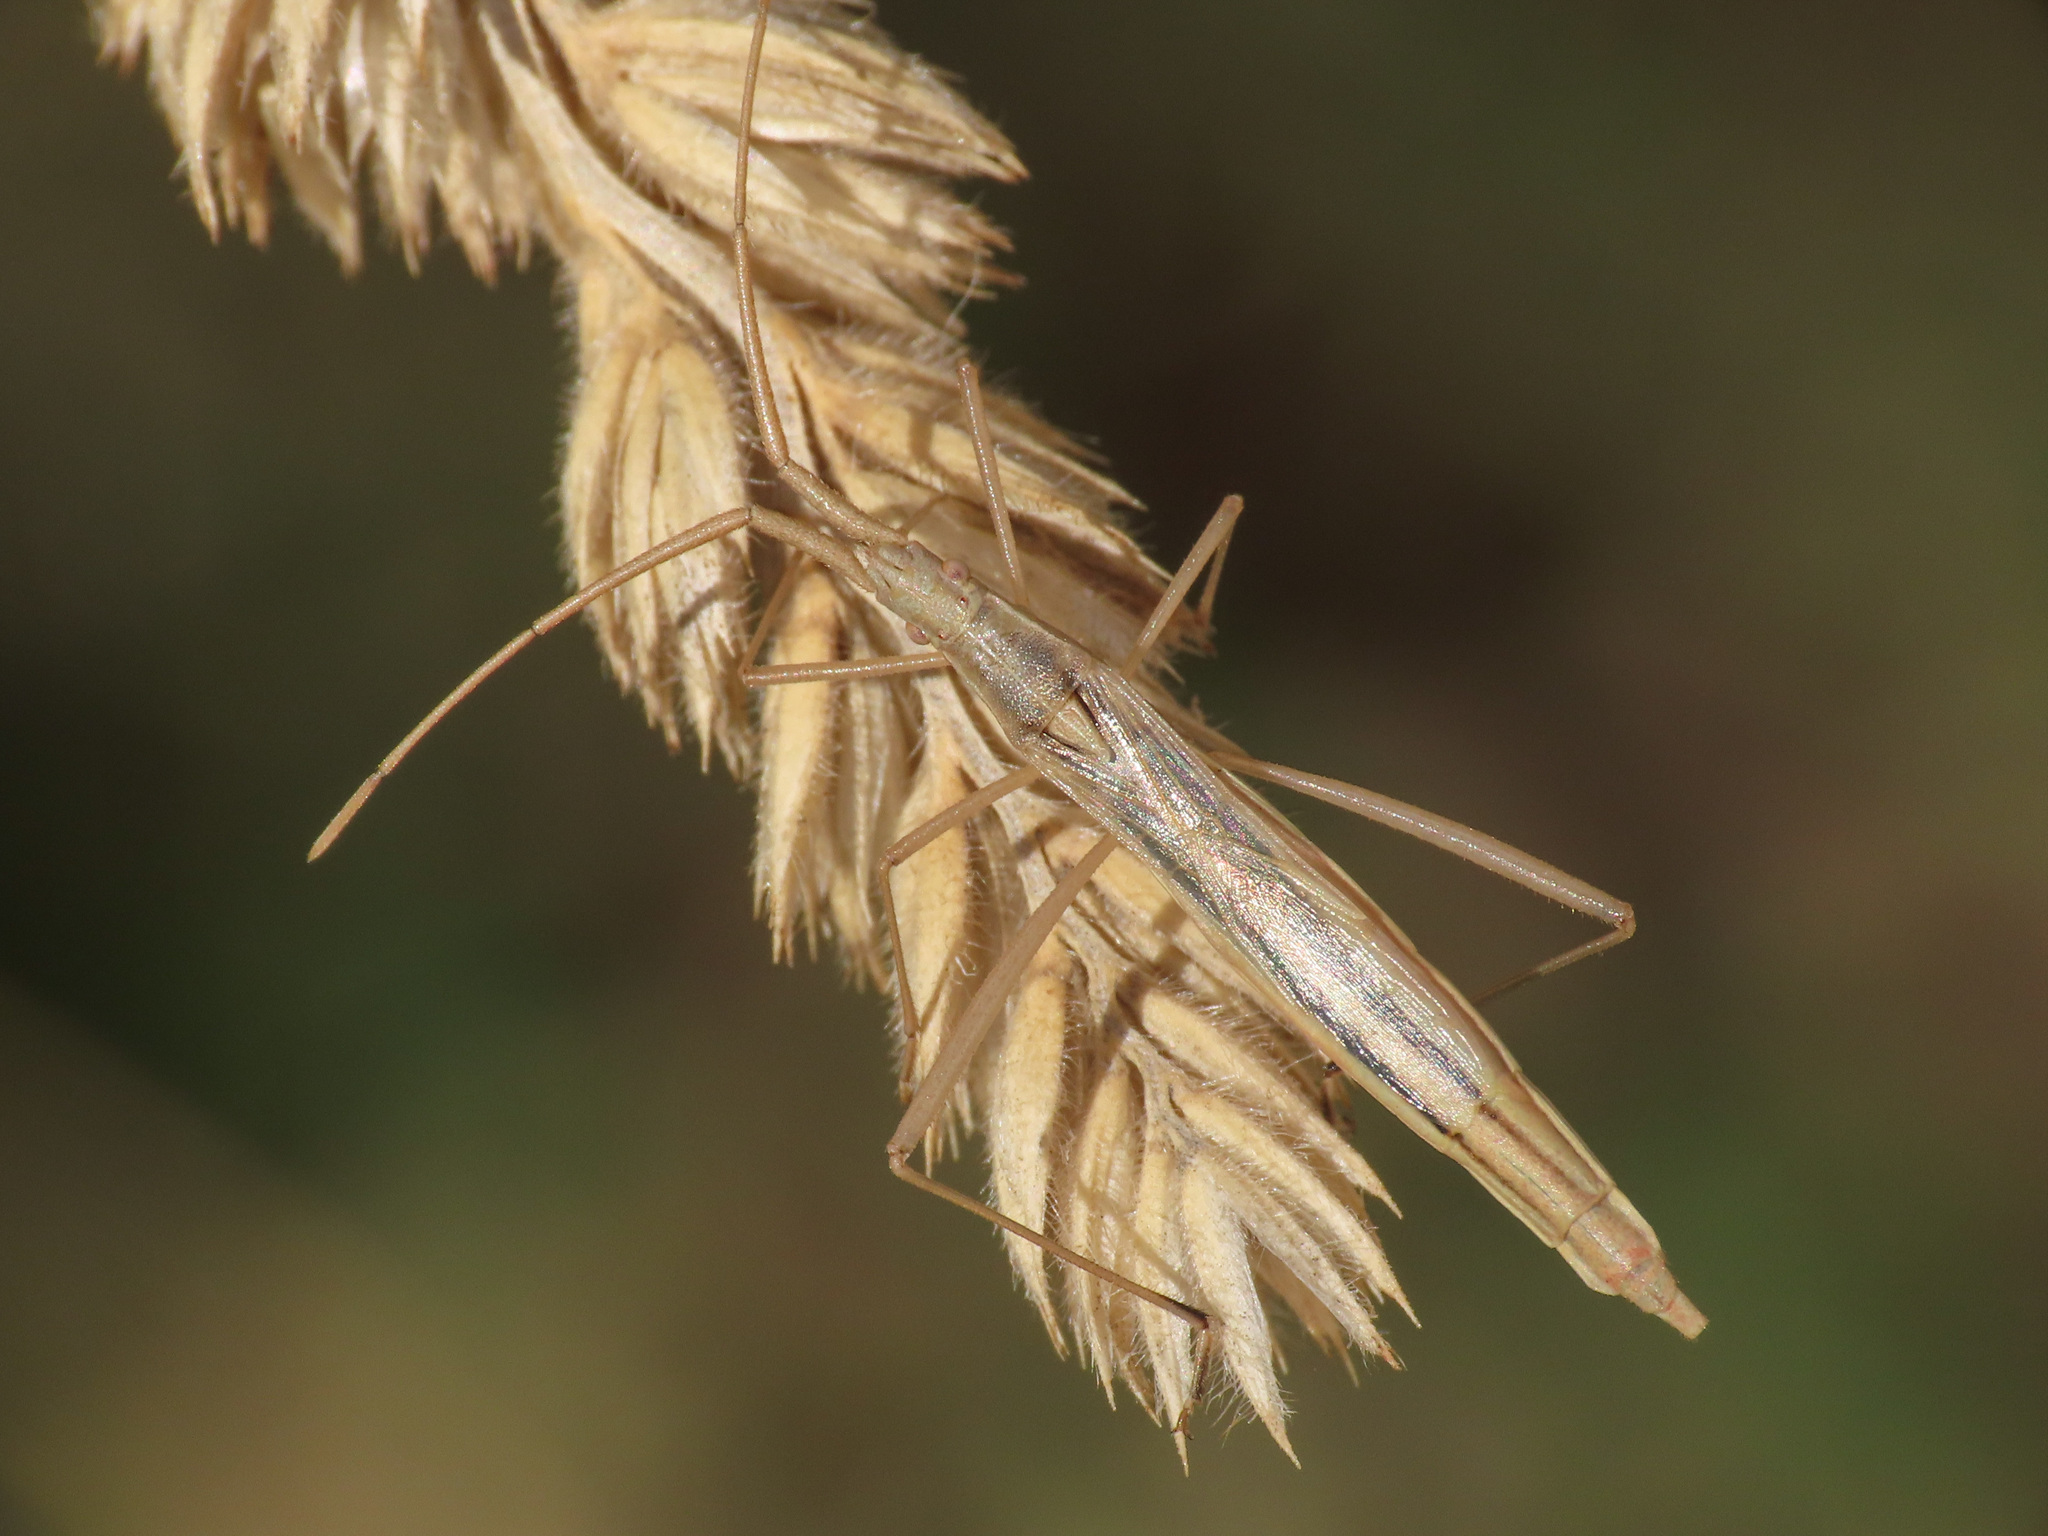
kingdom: Animalia
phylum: Arthropoda
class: Insecta
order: Hemiptera
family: Rhopalidae
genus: Chorosoma
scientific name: Chorosoma schillingii
